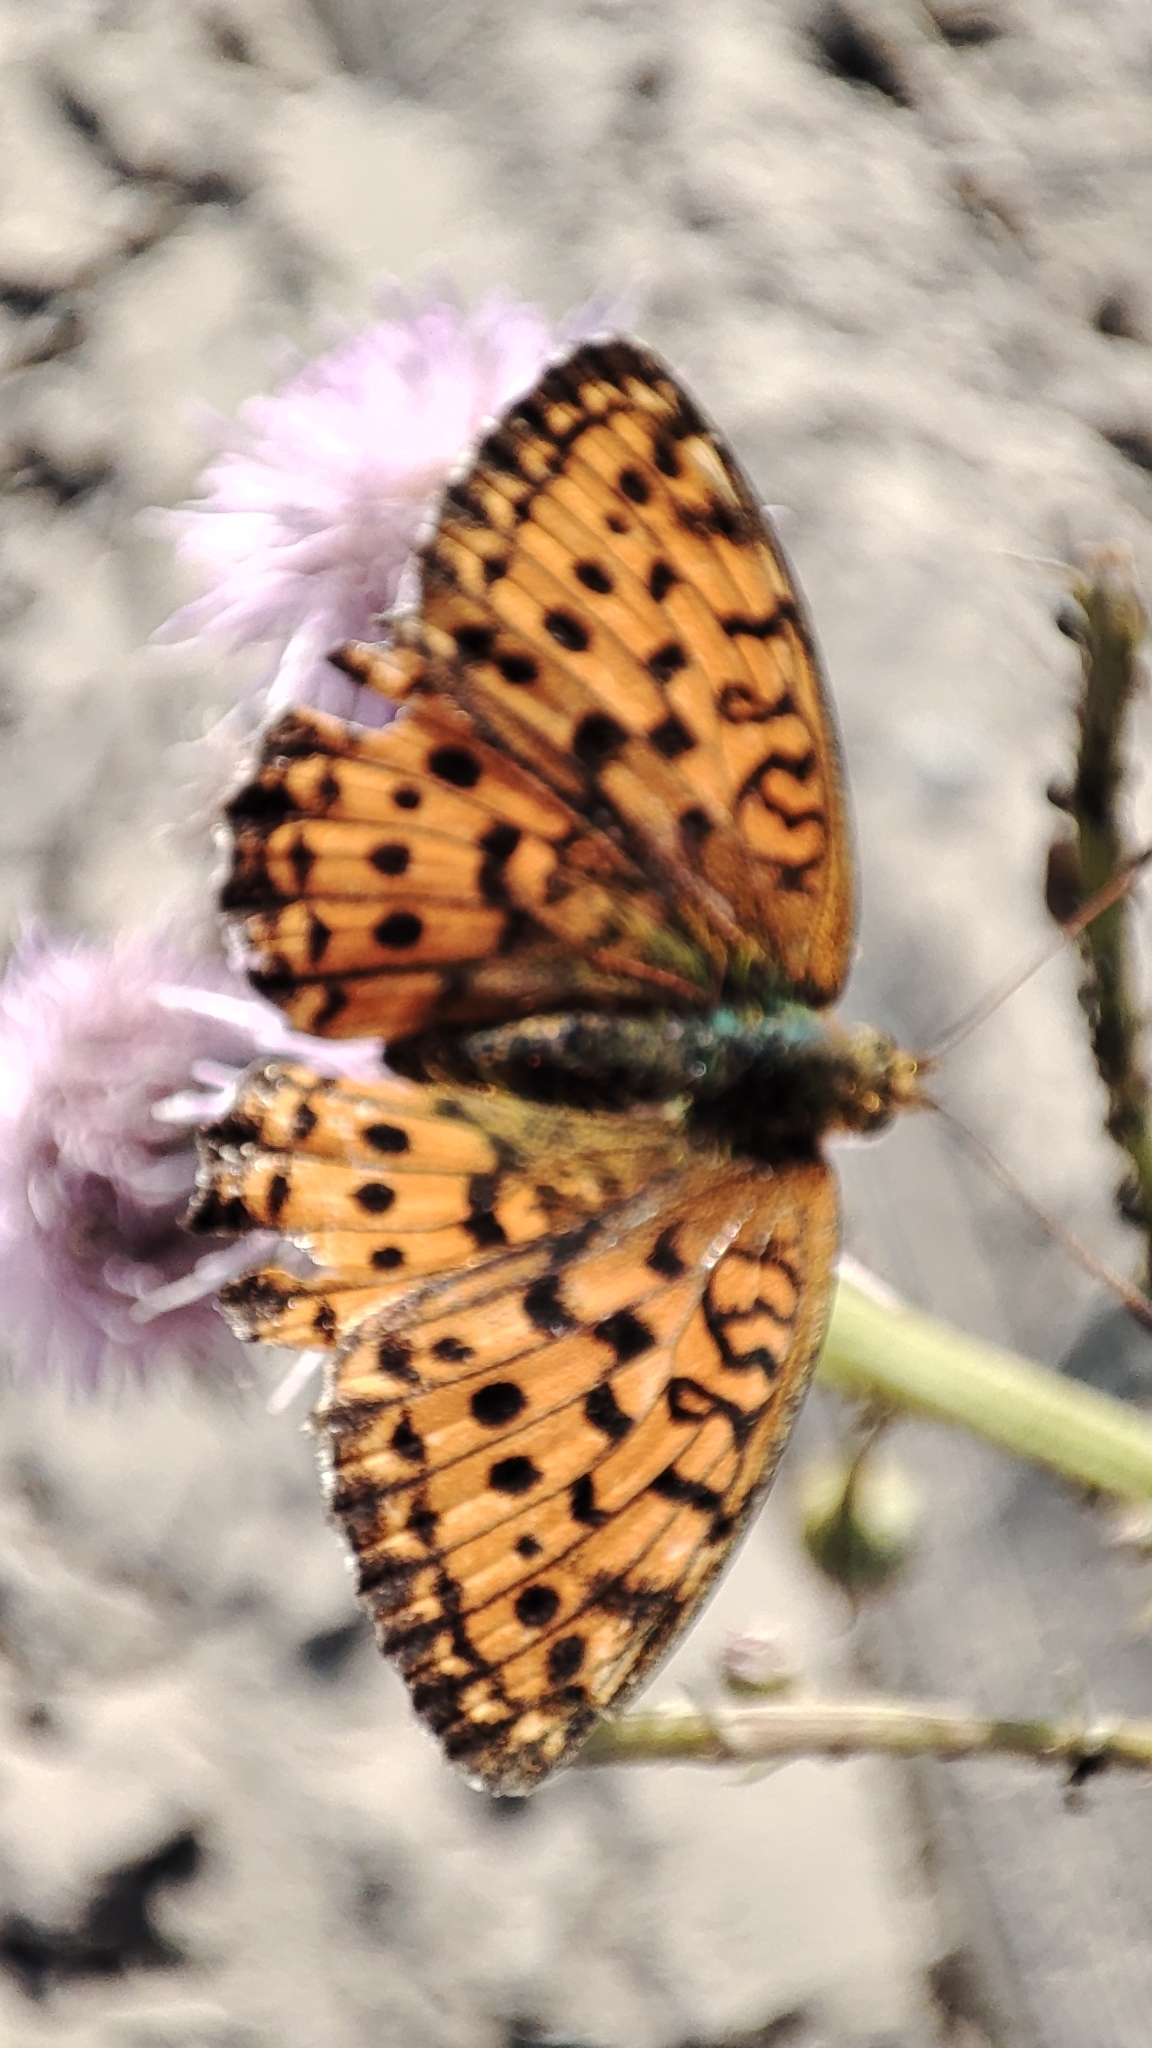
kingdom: Animalia
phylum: Arthropoda
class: Insecta
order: Lepidoptera
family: Nymphalidae
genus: Brenthis
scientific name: Brenthis ino
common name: Lesser marbled fritillary
